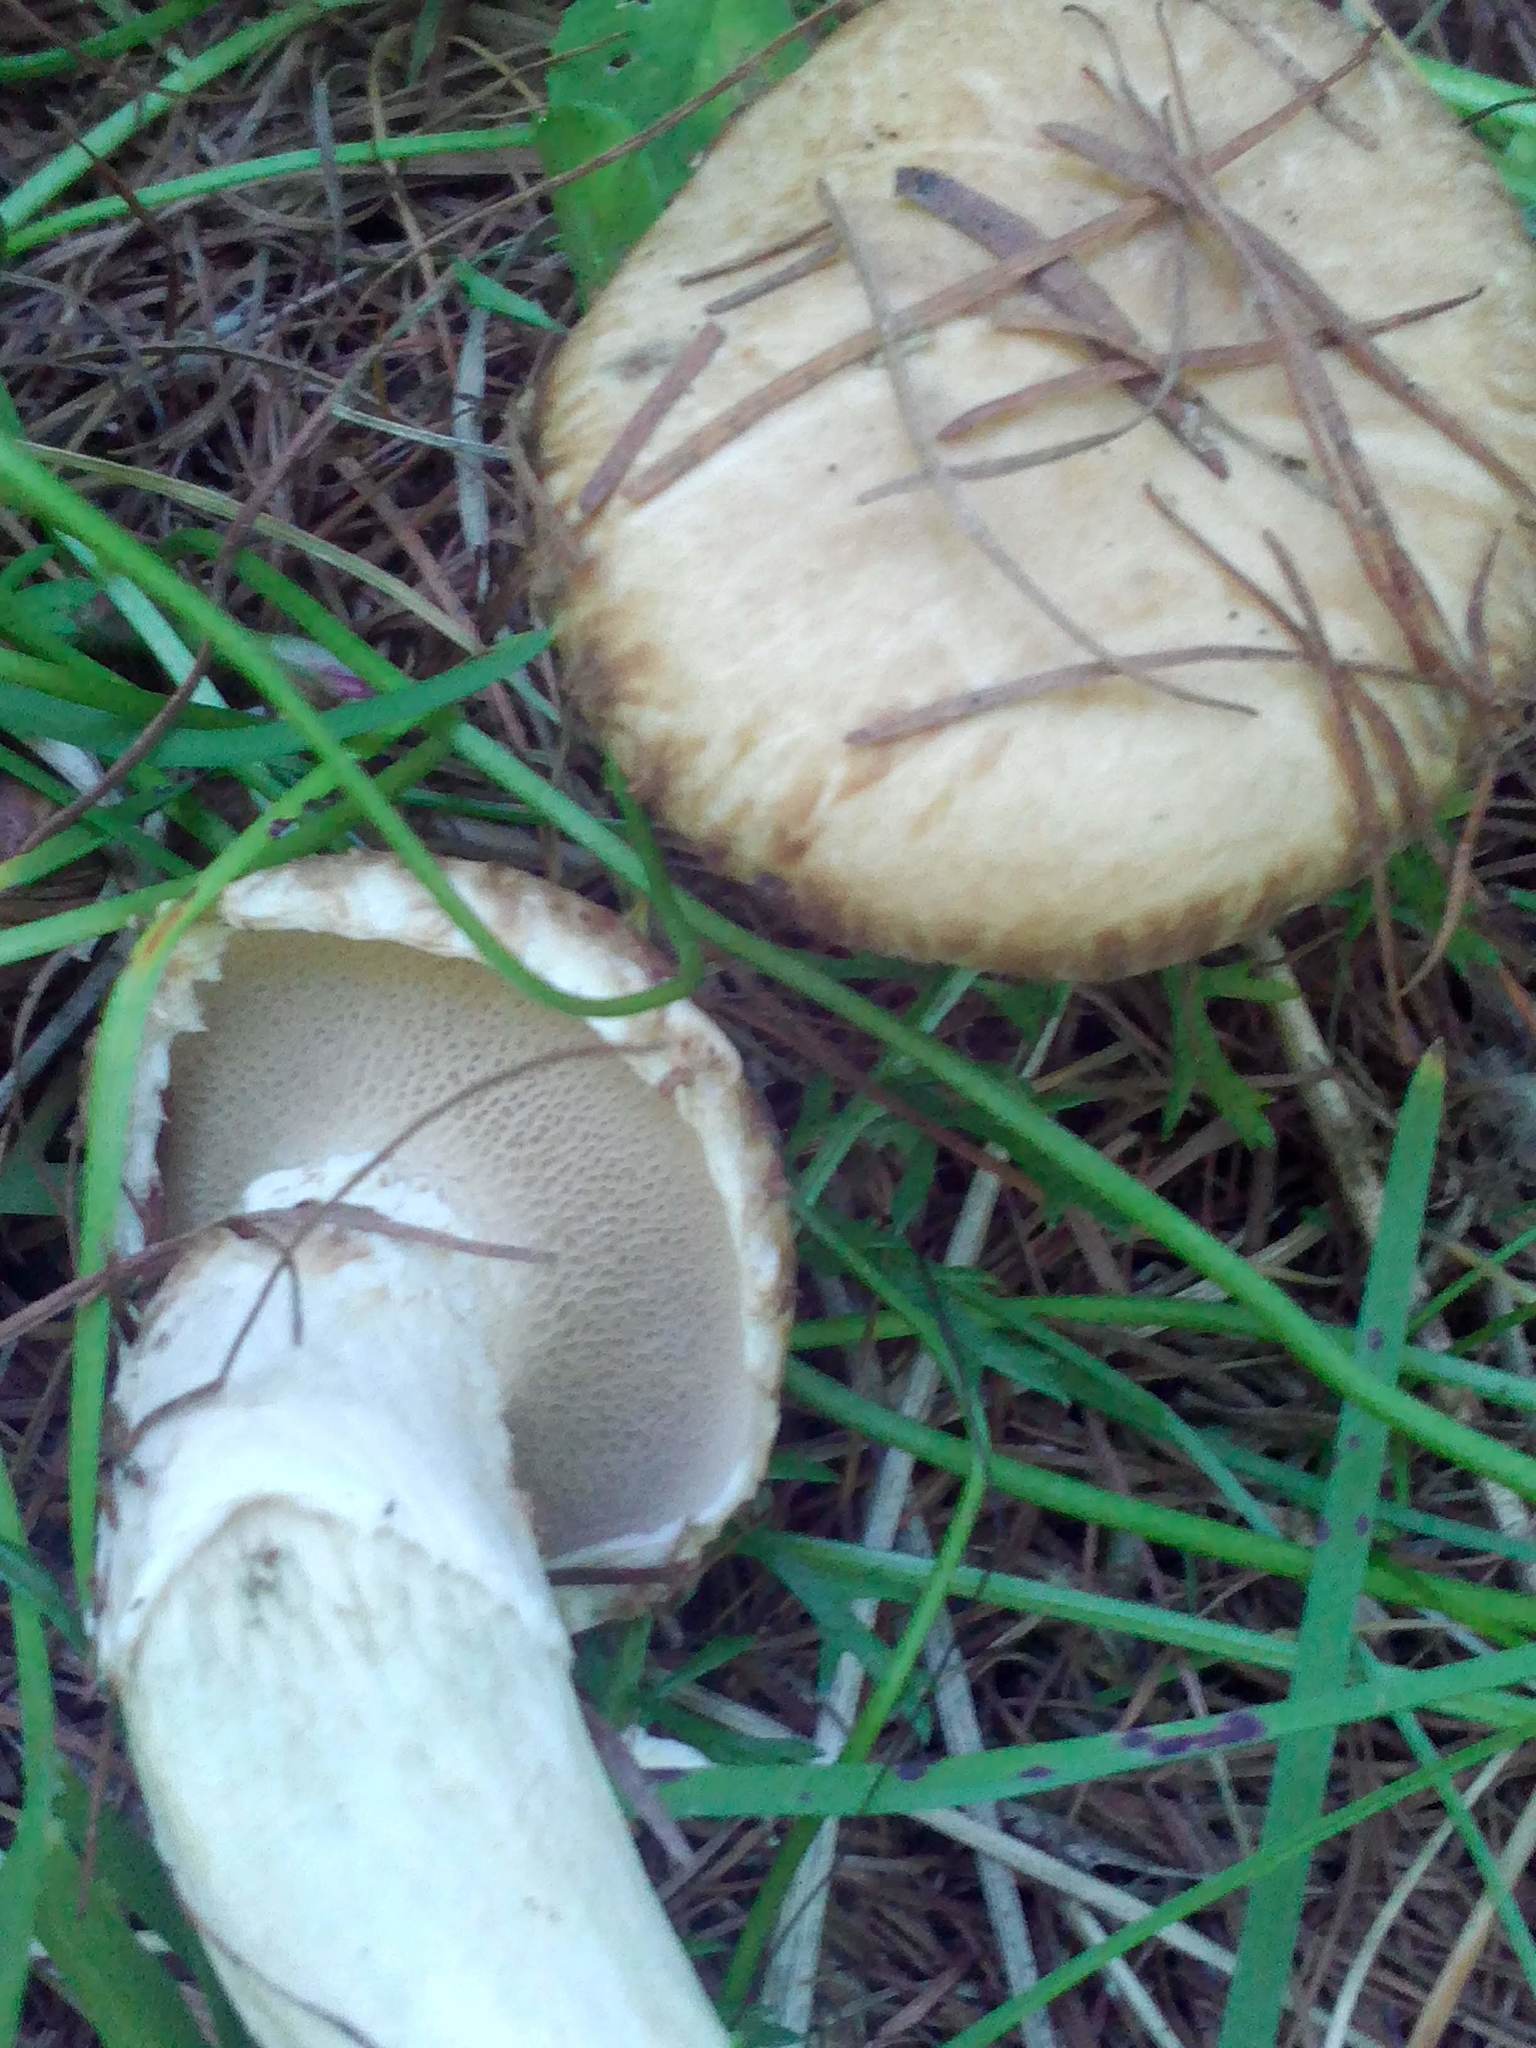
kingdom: Fungi
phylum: Basidiomycota
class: Agaricomycetes
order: Boletales
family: Suillaceae
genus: Suillus
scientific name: Suillus viscidus
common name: Sticky bolete
